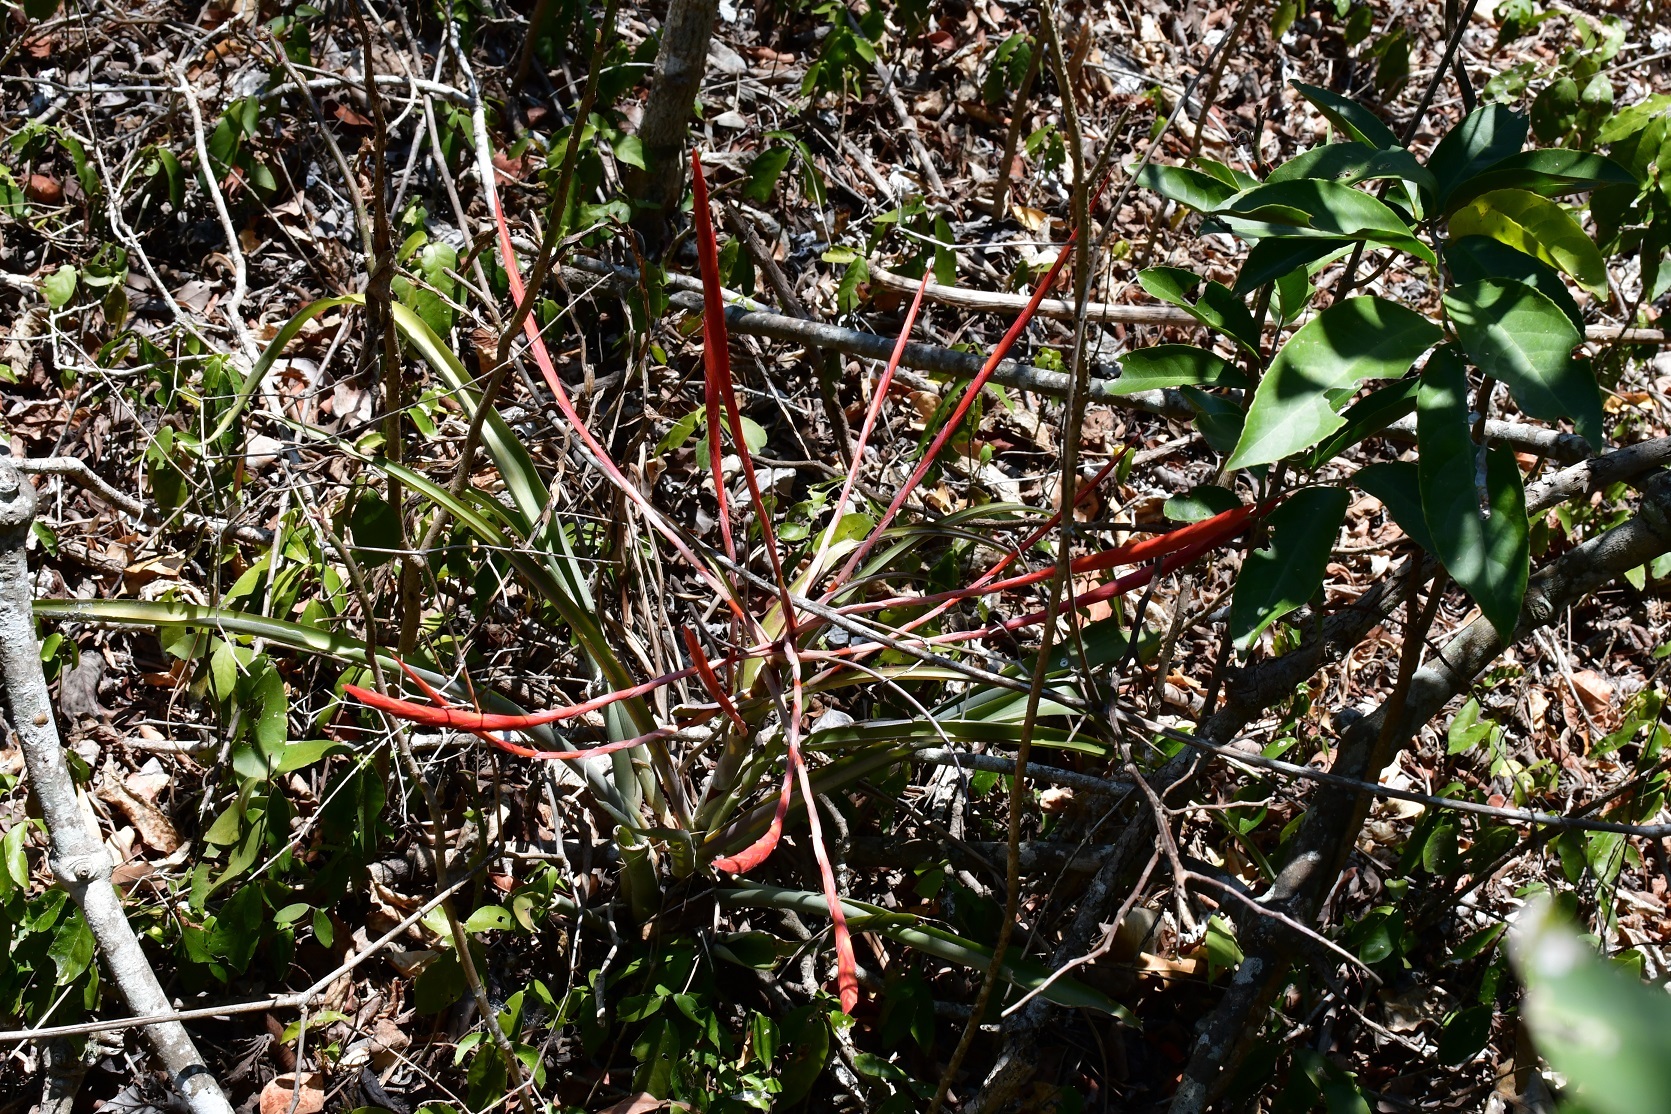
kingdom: Plantae
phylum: Tracheophyta
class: Liliopsida
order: Poales
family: Bromeliaceae
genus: Tillandsia
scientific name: Tillandsia flabellata
